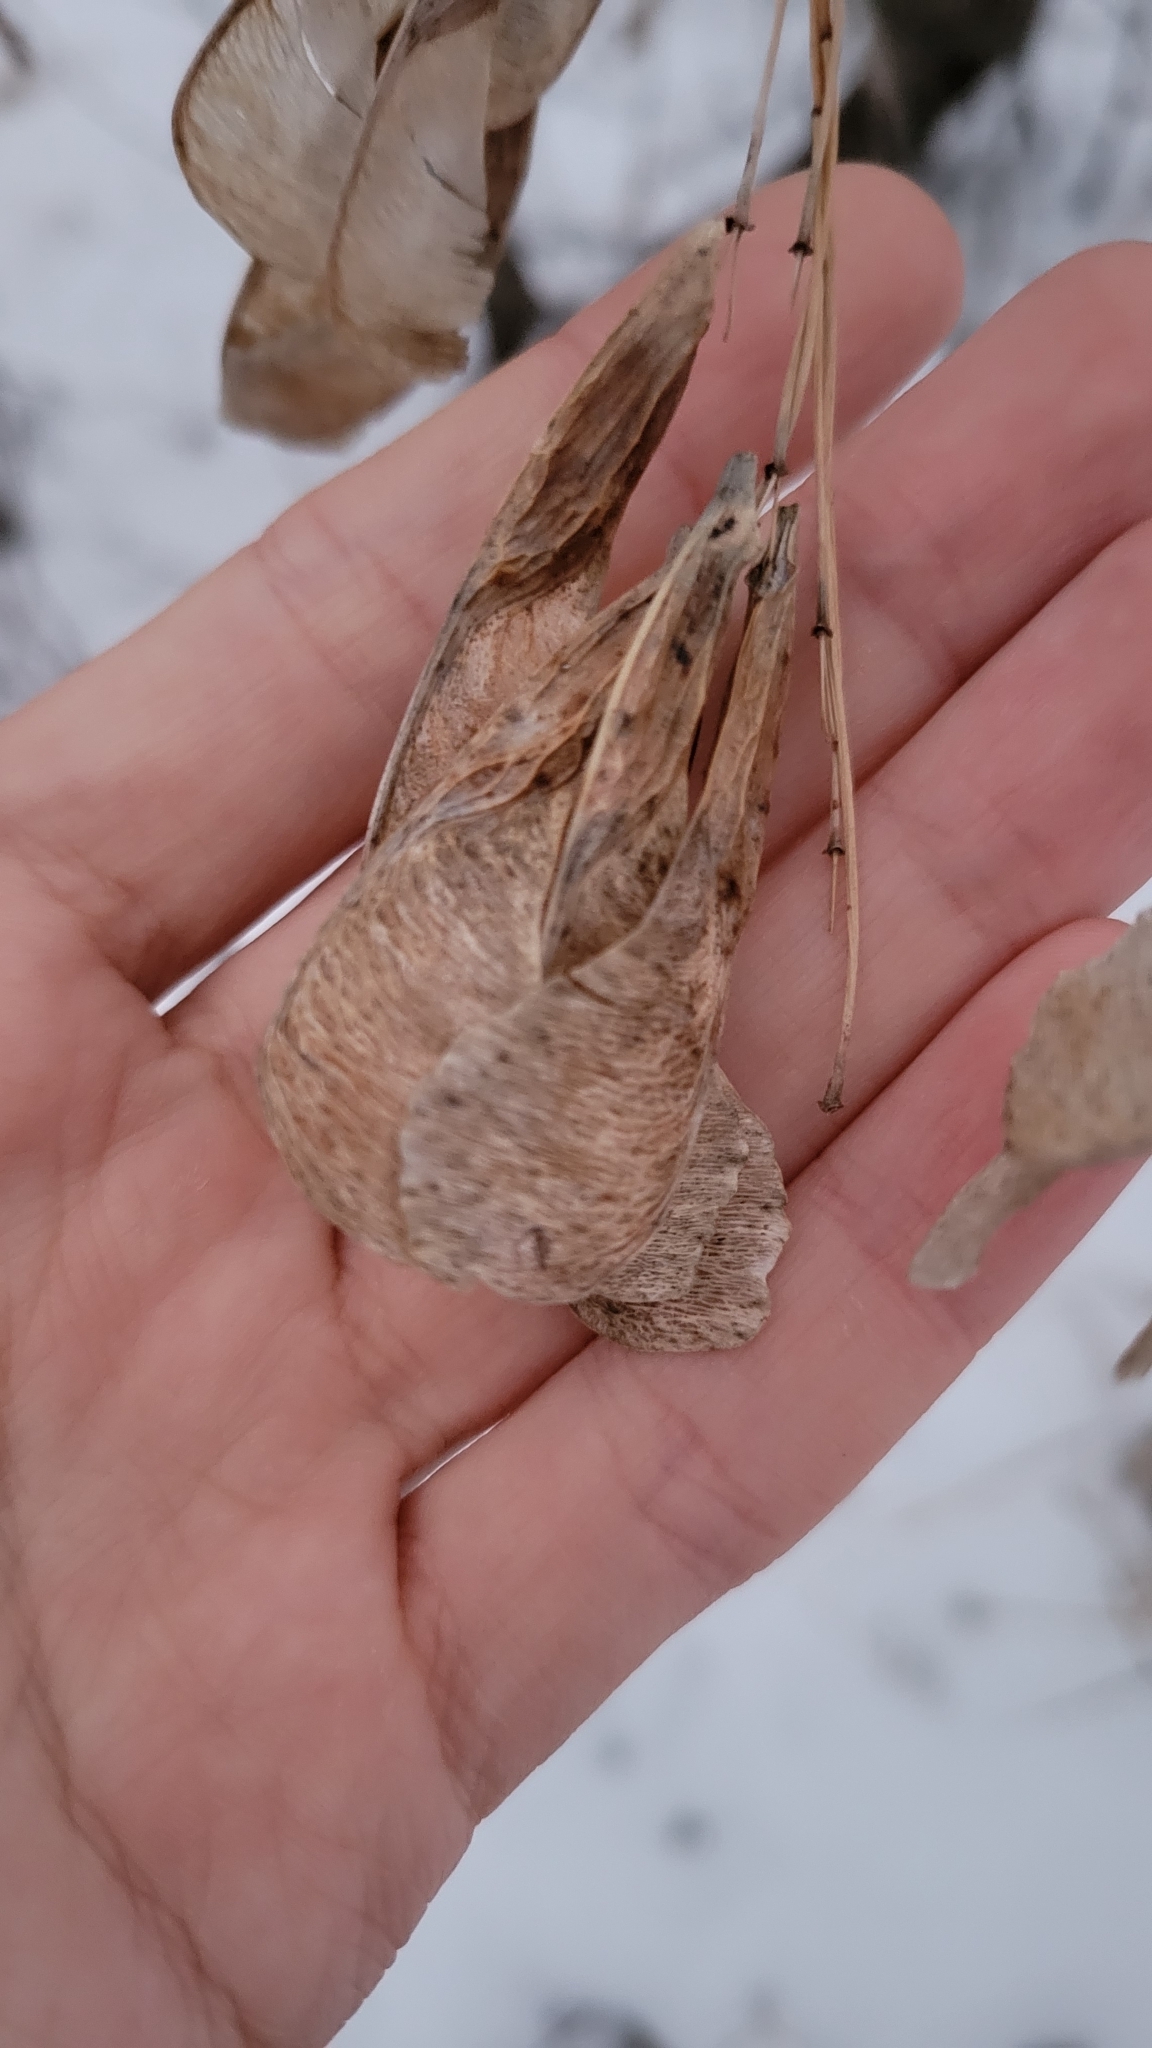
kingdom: Plantae
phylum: Tracheophyta
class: Magnoliopsida
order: Sapindales
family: Sapindaceae
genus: Acer
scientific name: Acer negundo
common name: Ashleaf maple
